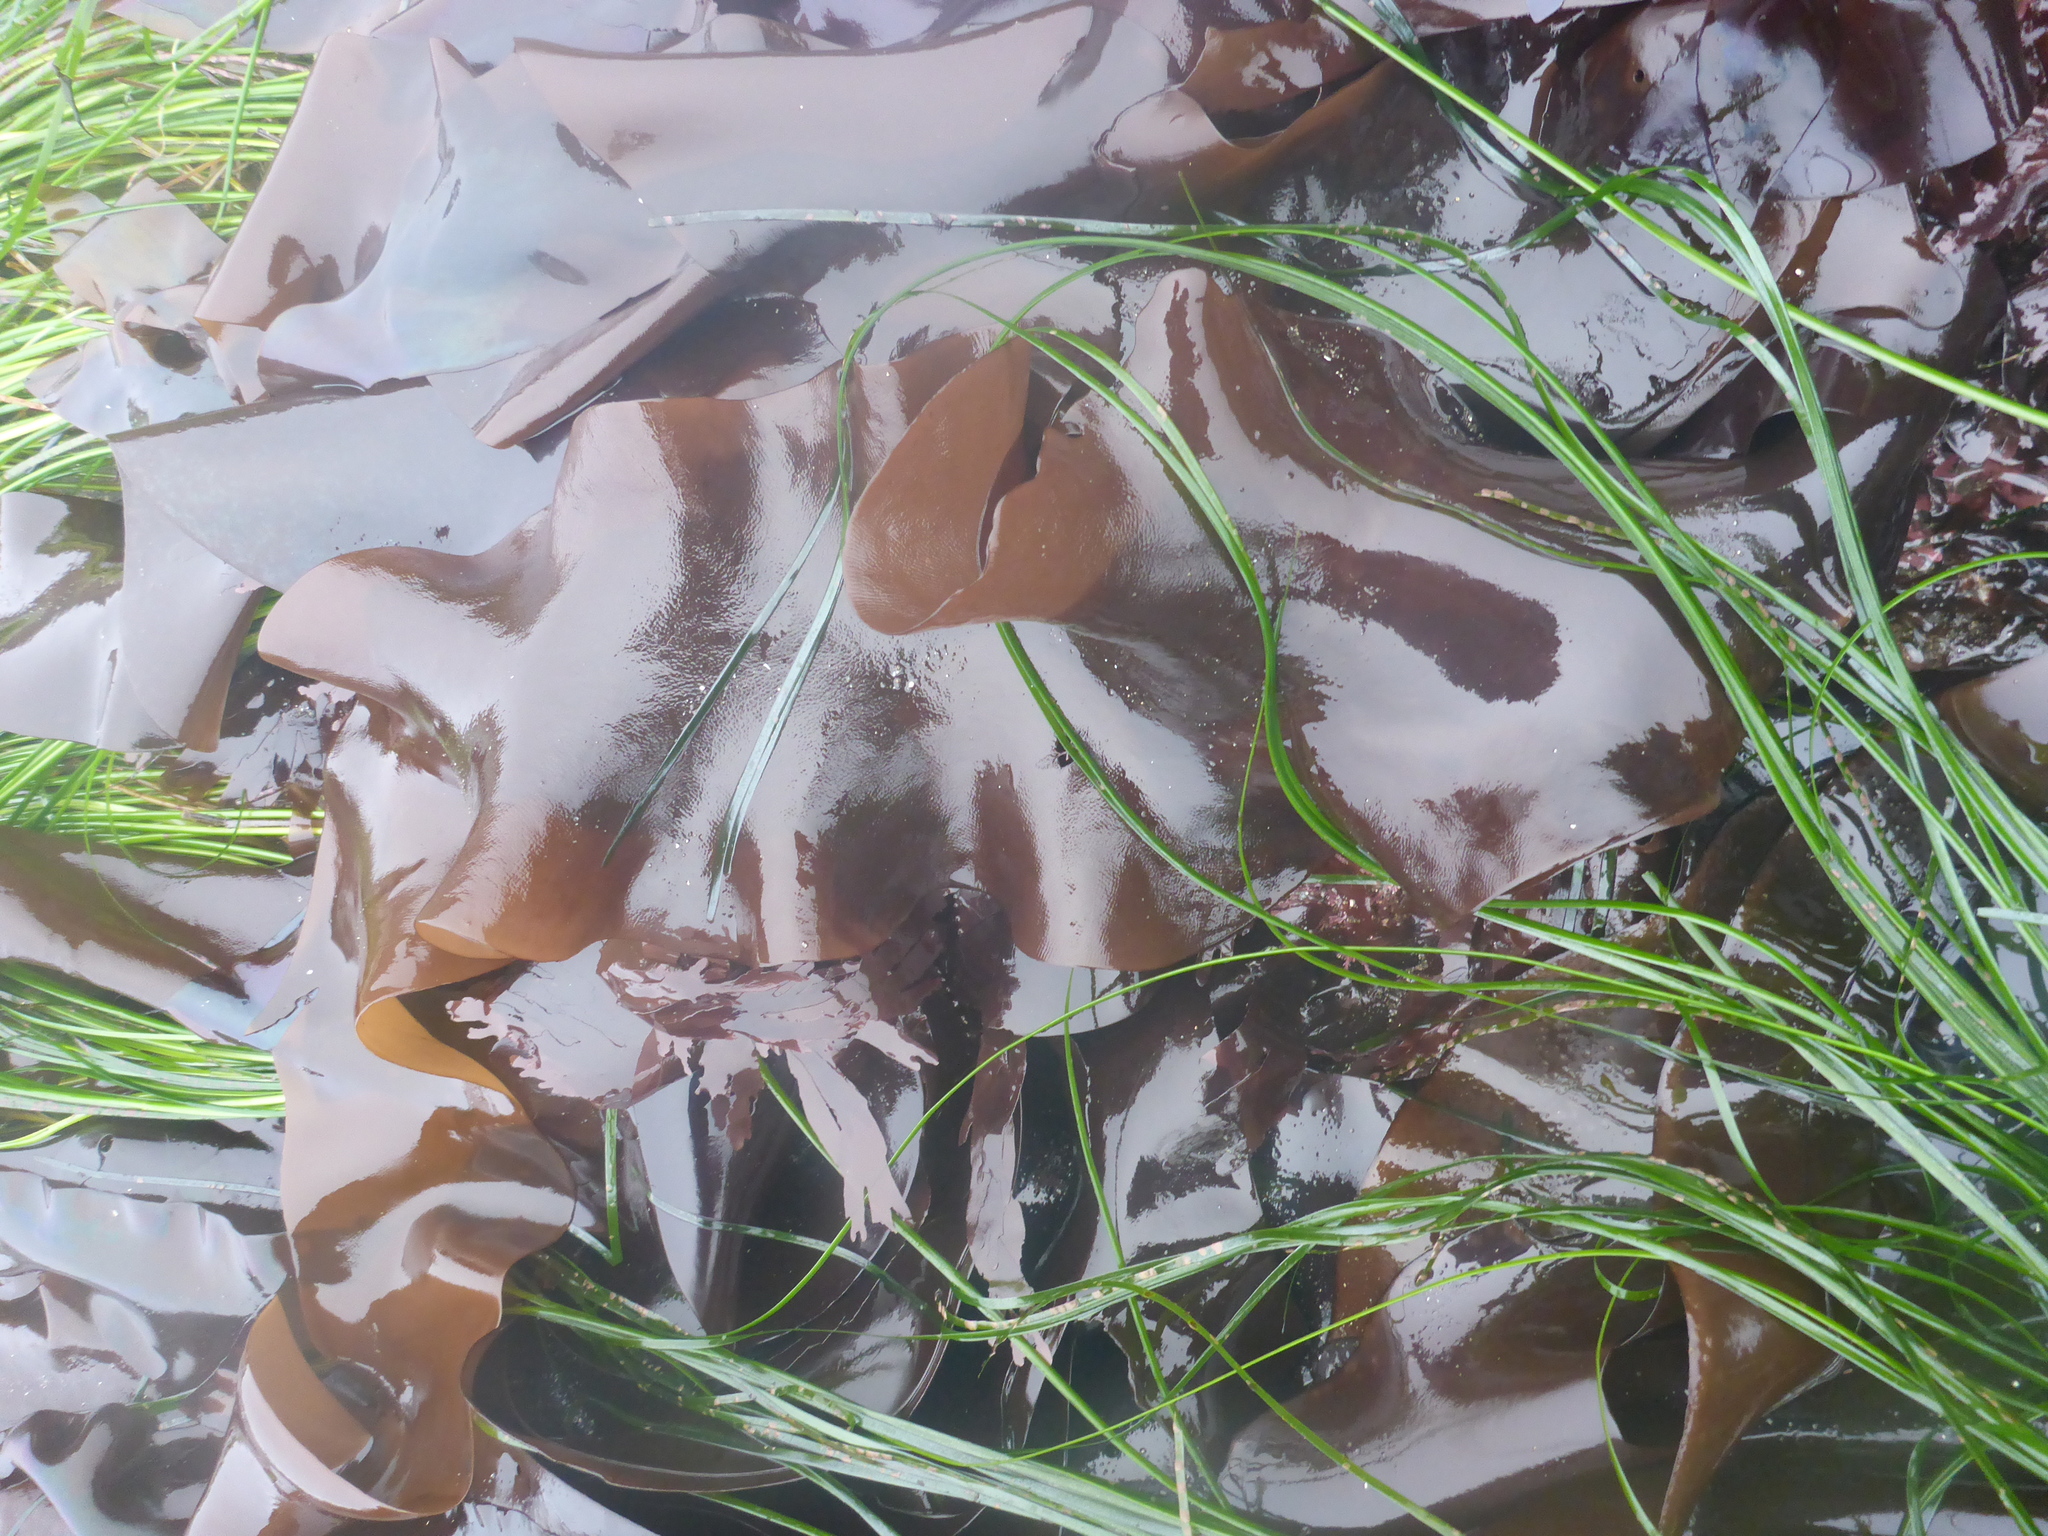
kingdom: Plantae
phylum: Rhodophyta
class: Florideophyceae
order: Gigartinales
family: Gigartinaceae
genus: Mazzaella
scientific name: Mazzaella splendens
